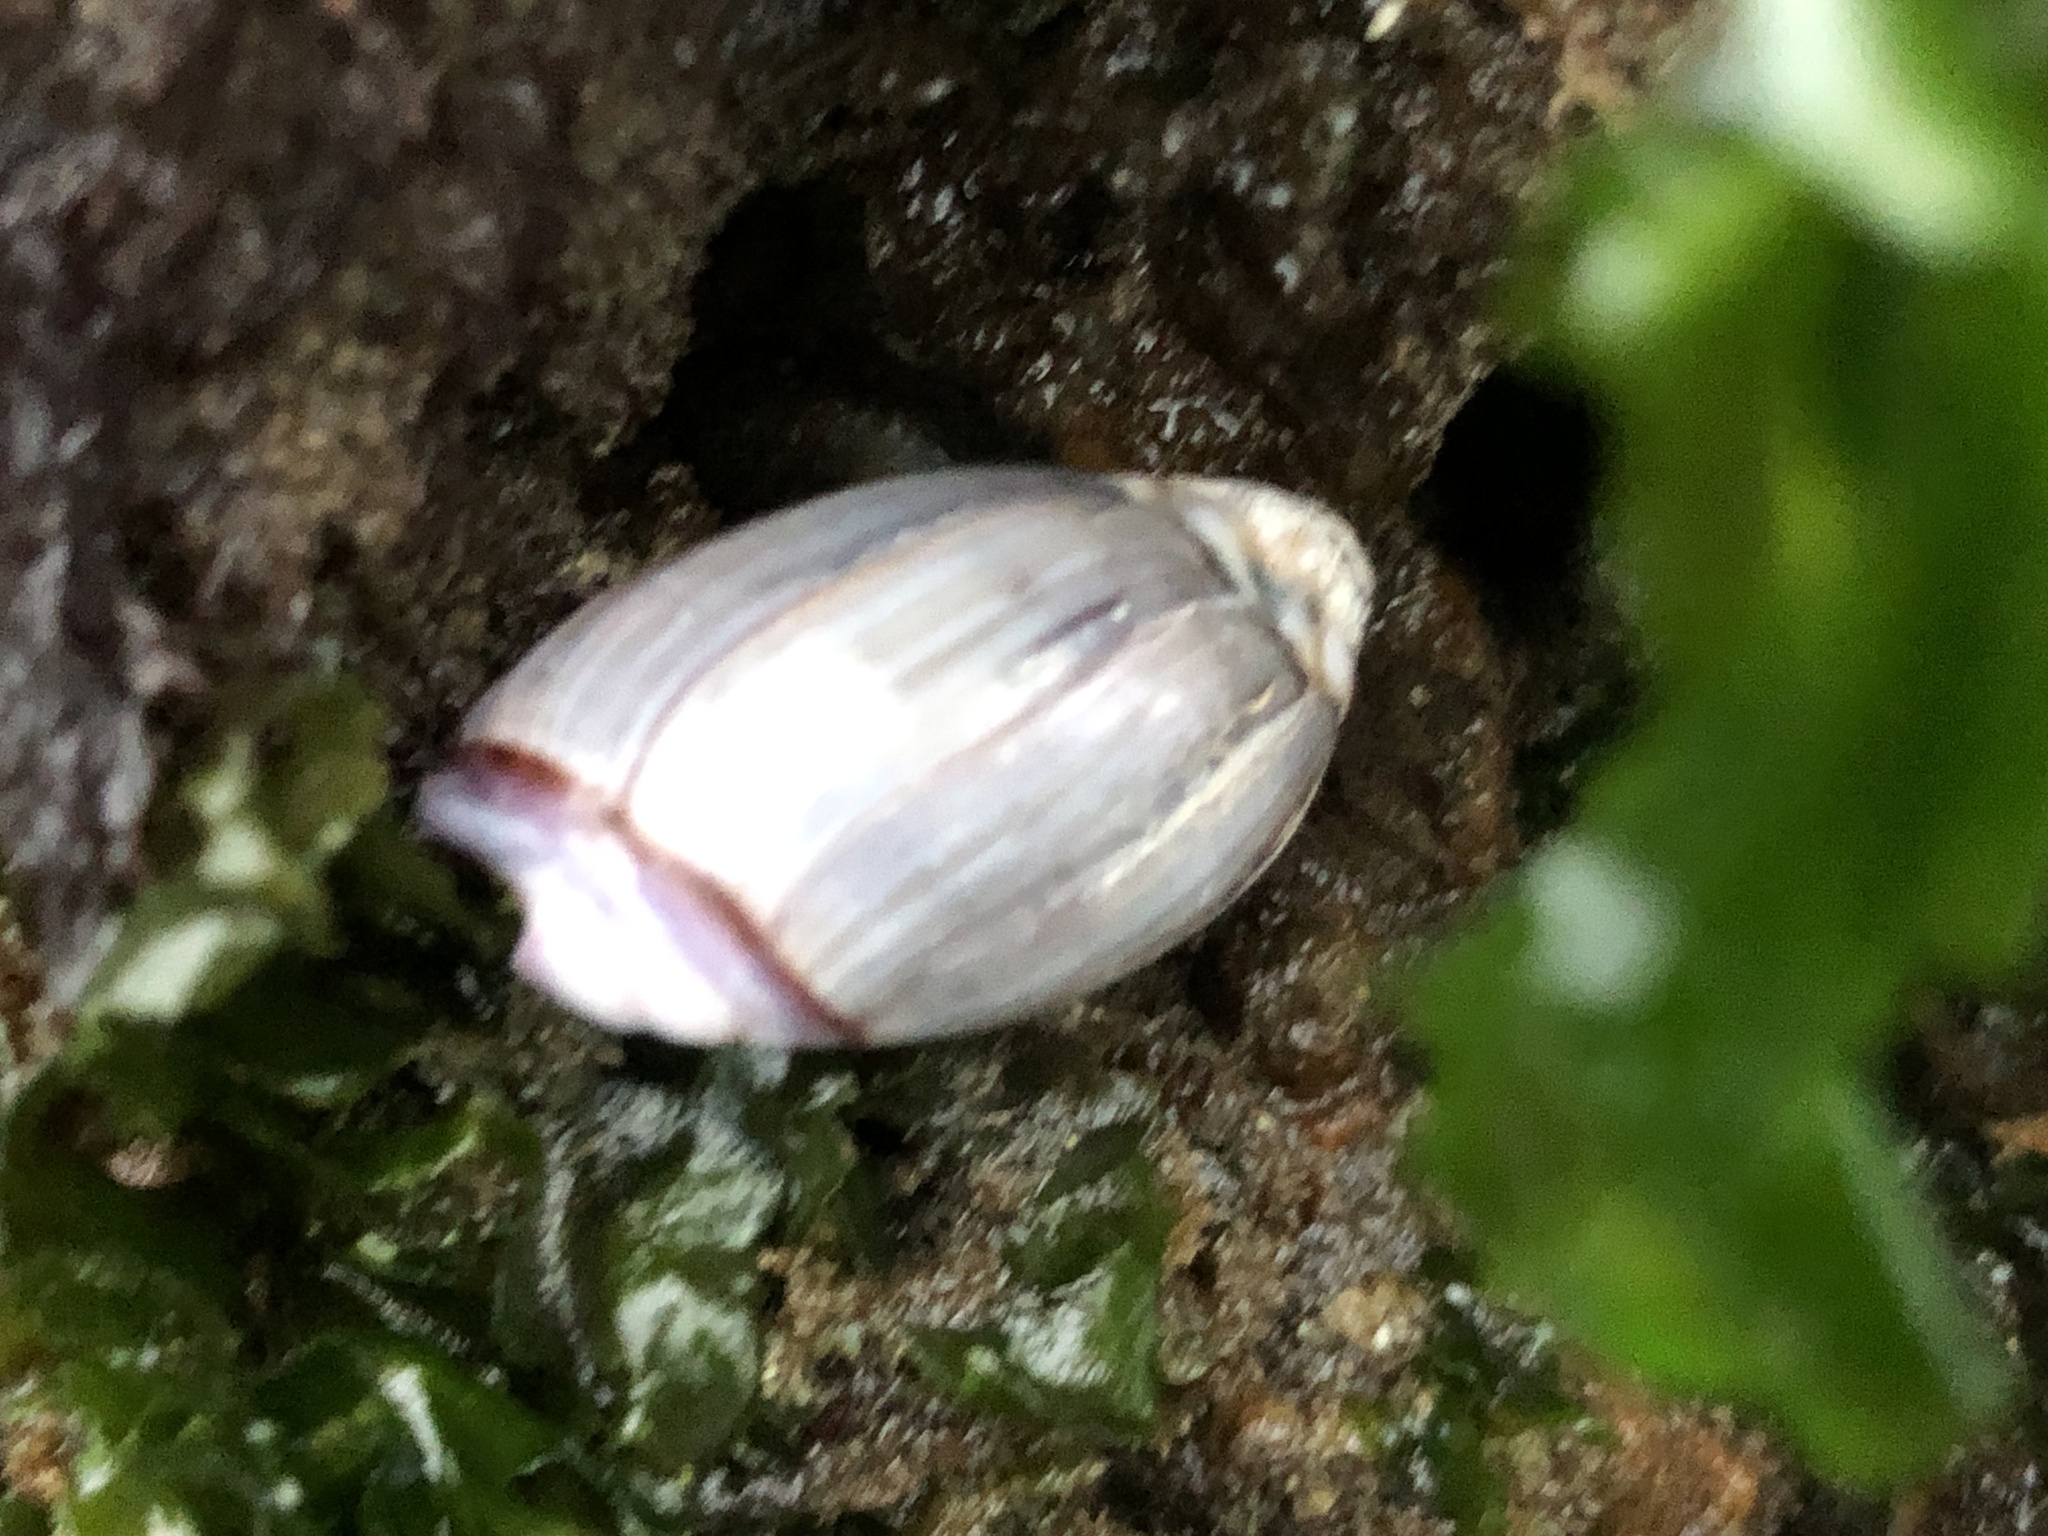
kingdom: Animalia
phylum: Mollusca
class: Gastropoda
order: Neogastropoda
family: Olividae
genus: Callianax
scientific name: Callianax biplicata
